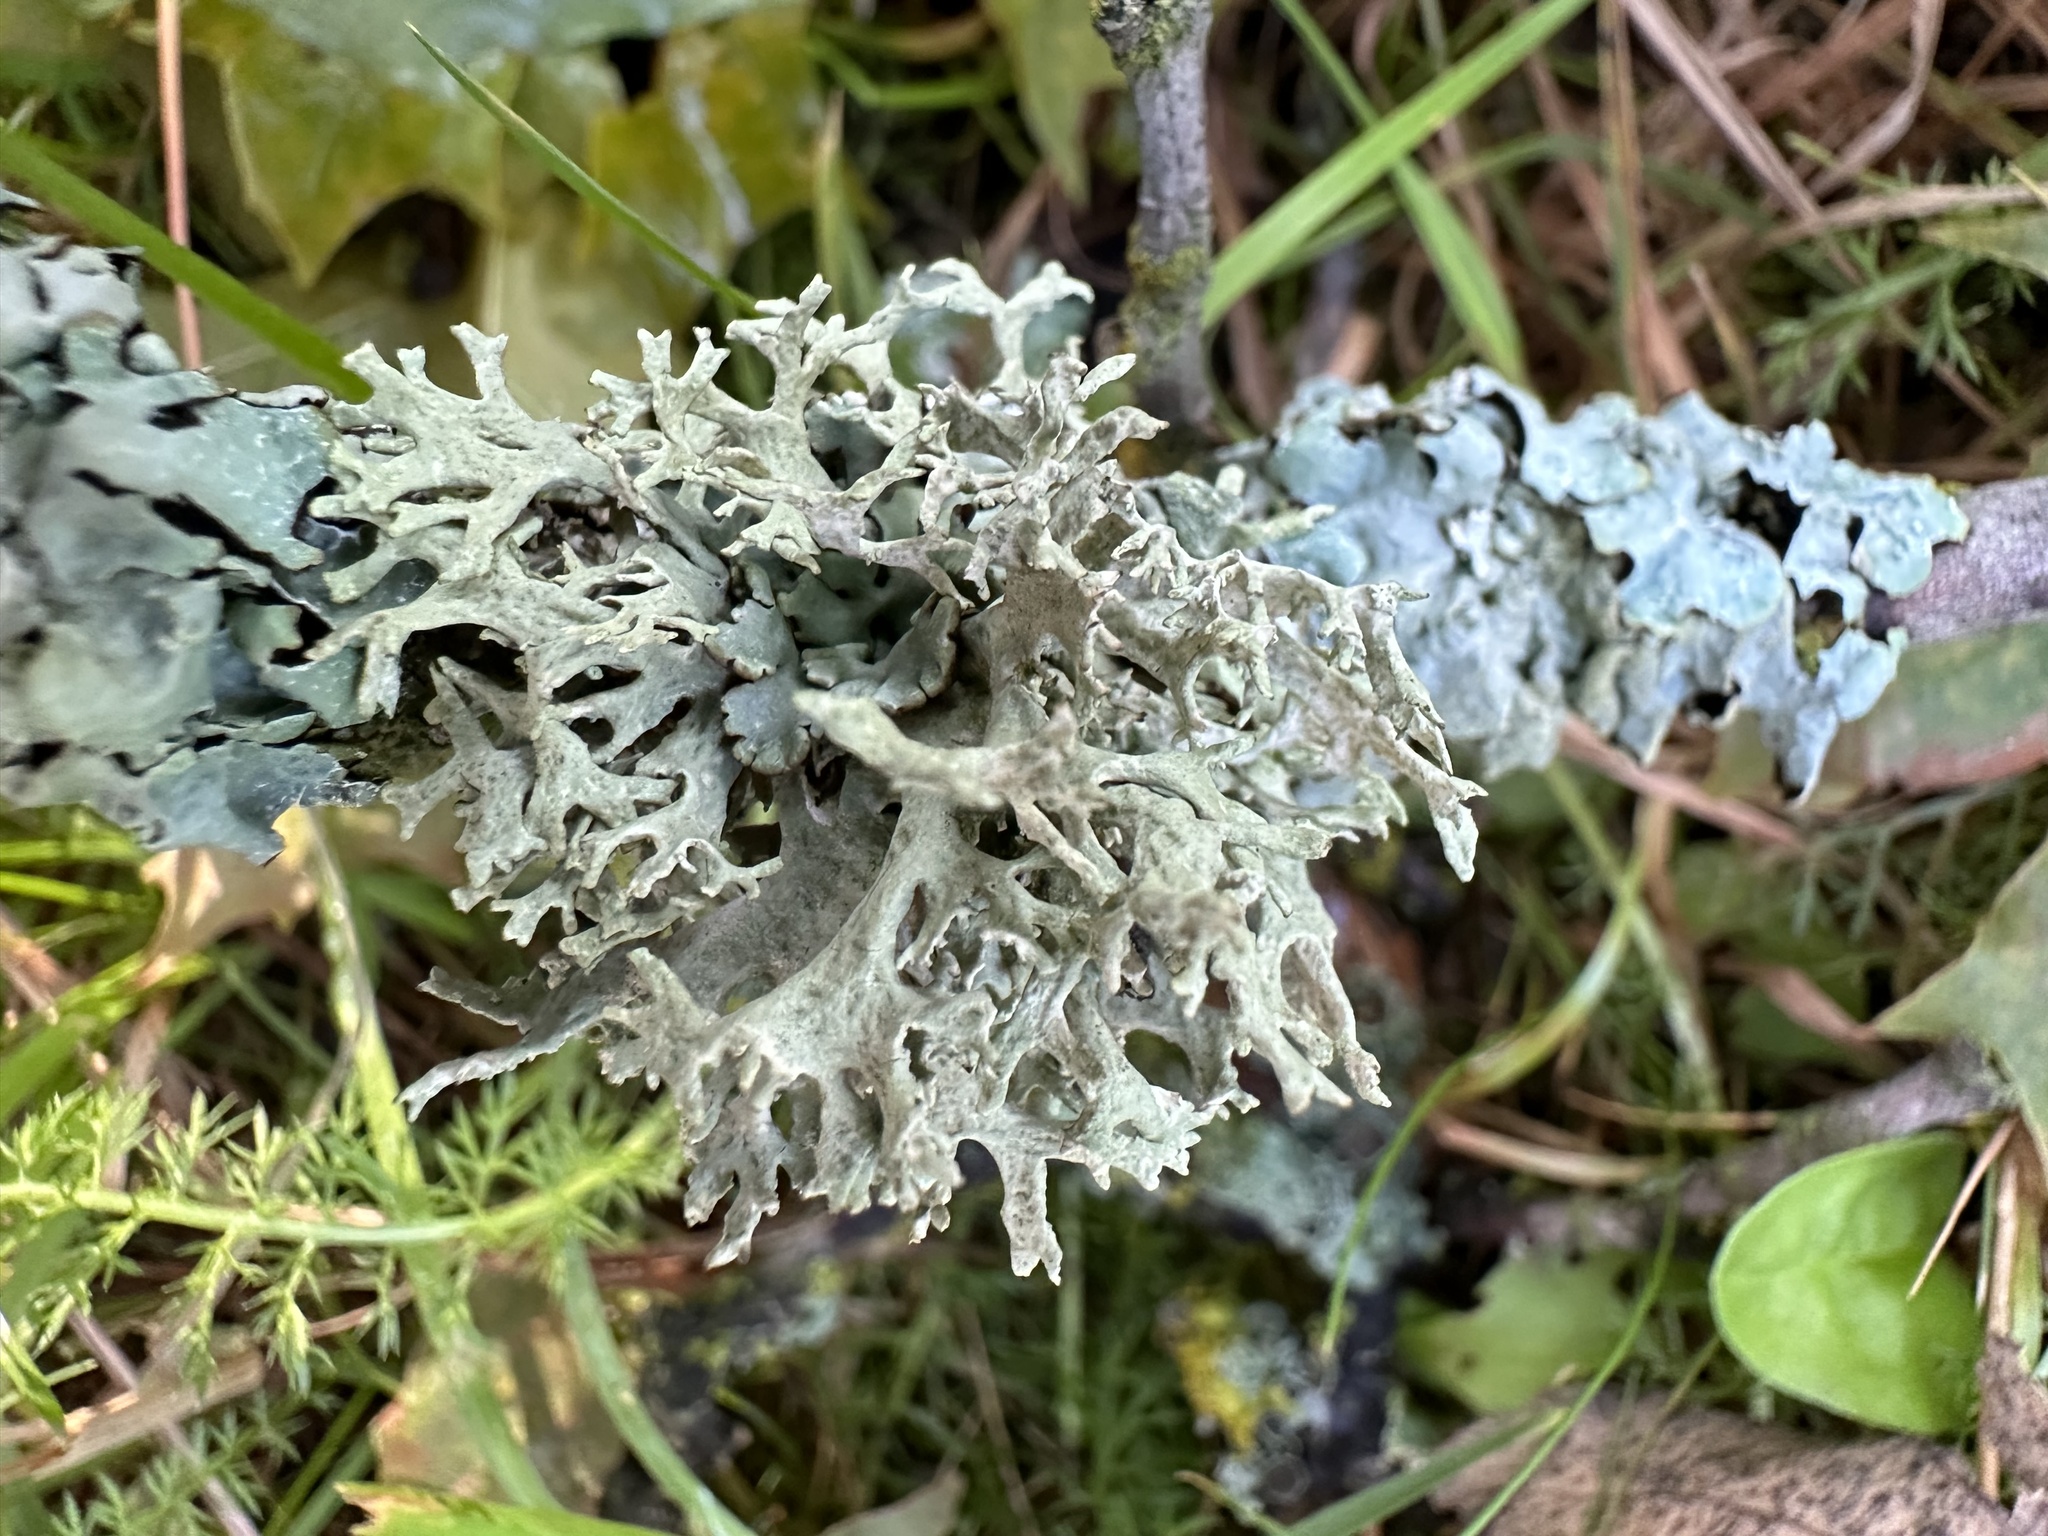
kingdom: Fungi
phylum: Ascomycota
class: Lecanoromycetes
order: Lecanorales
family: Parmeliaceae
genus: Evernia
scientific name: Evernia prunastri
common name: Oak moss
